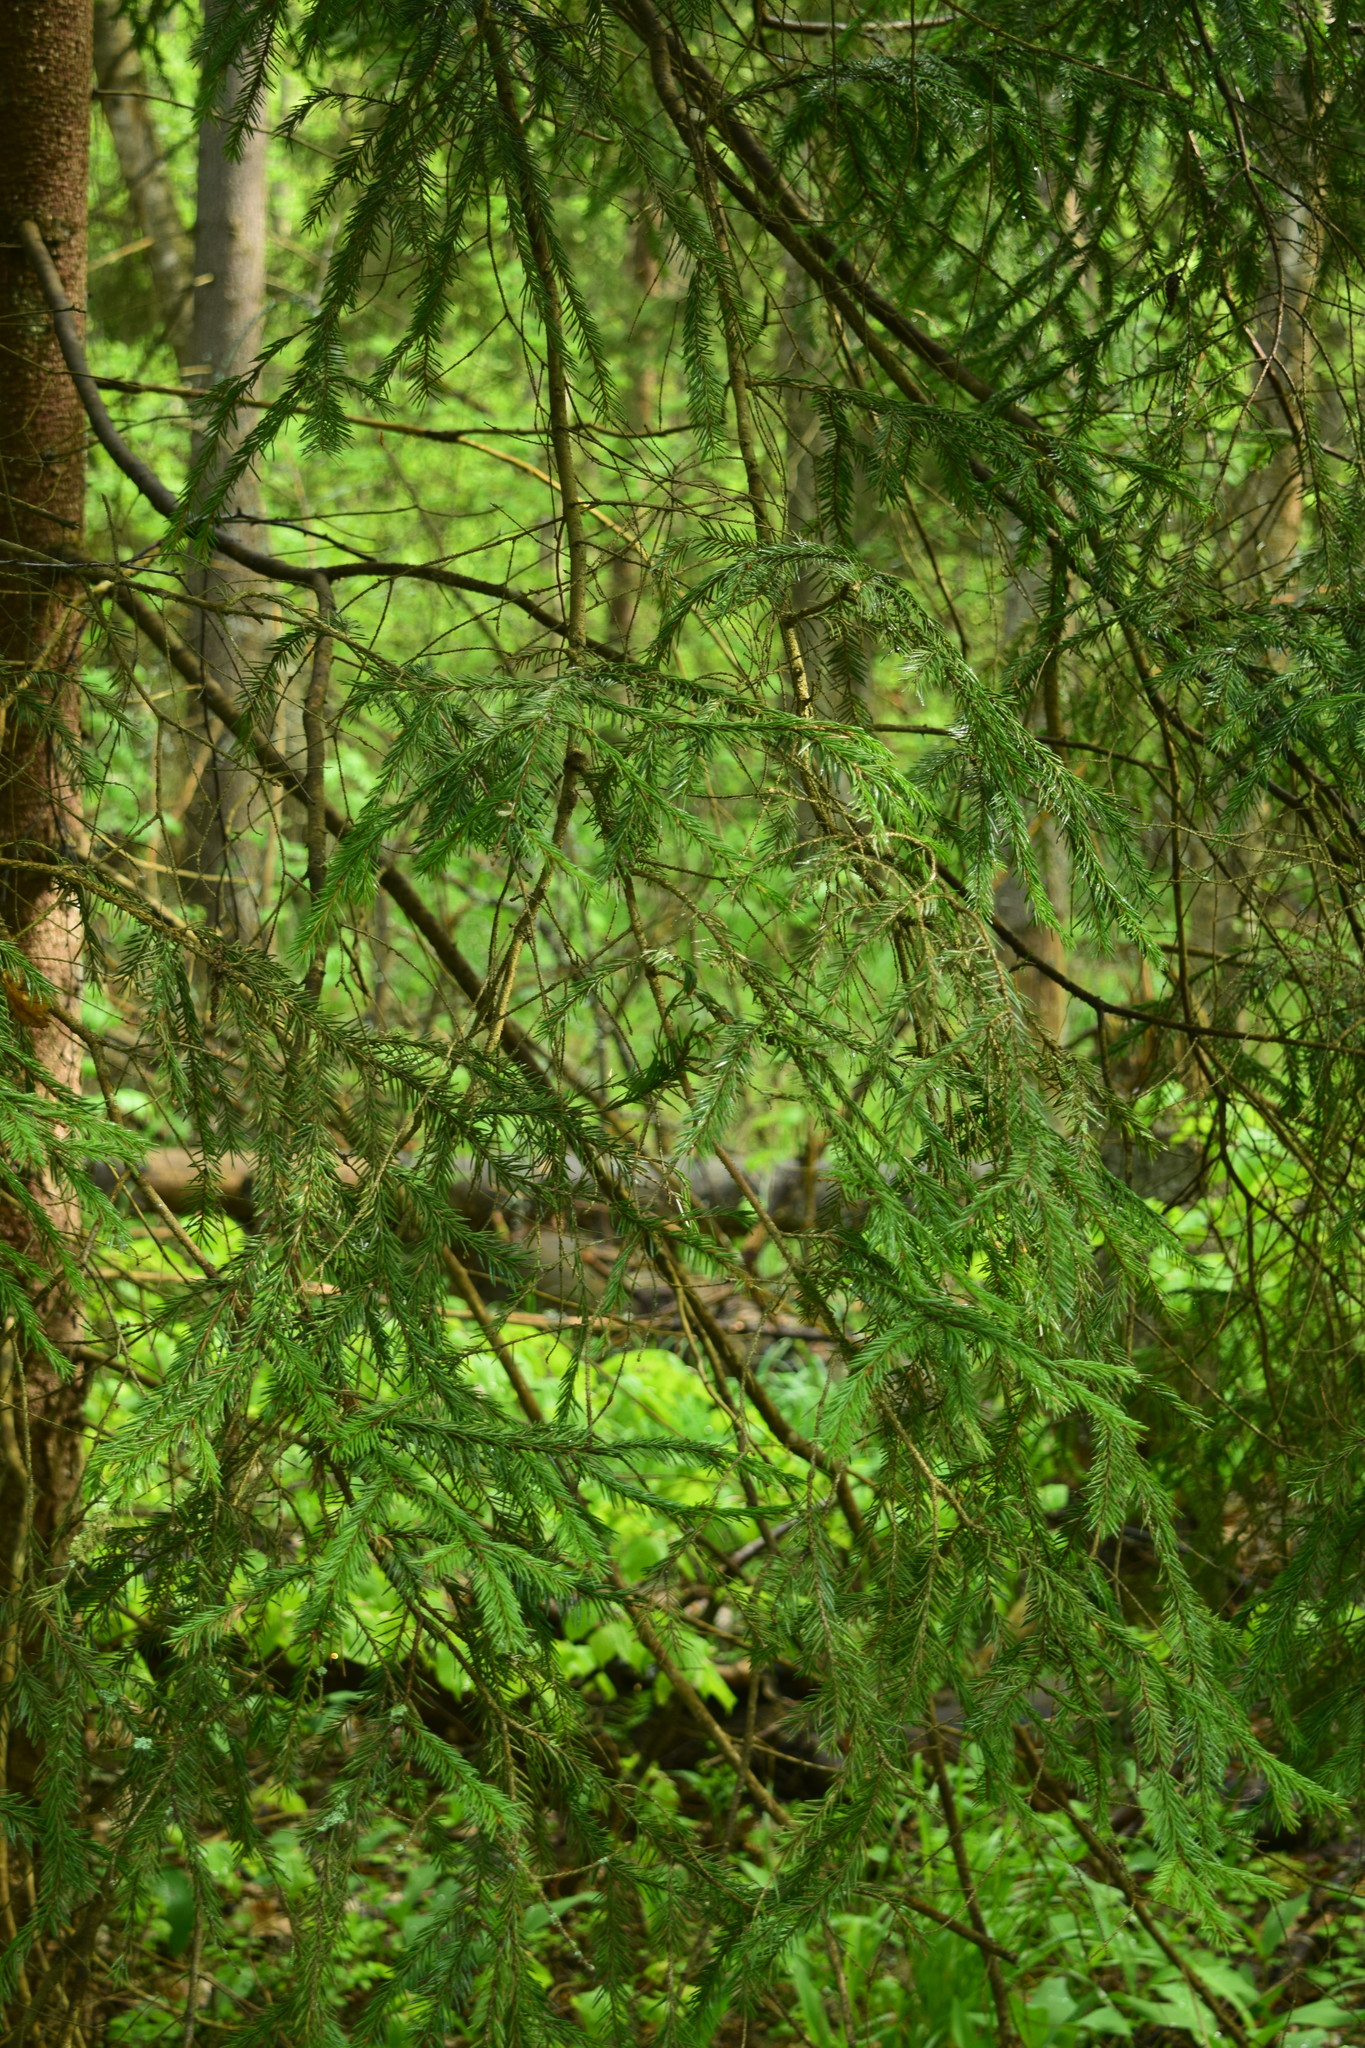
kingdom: Plantae
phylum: Tracheophyta
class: Pinopsida
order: Pinales
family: Pinaceae
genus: Picea
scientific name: Picea abies
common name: Norway spruce
